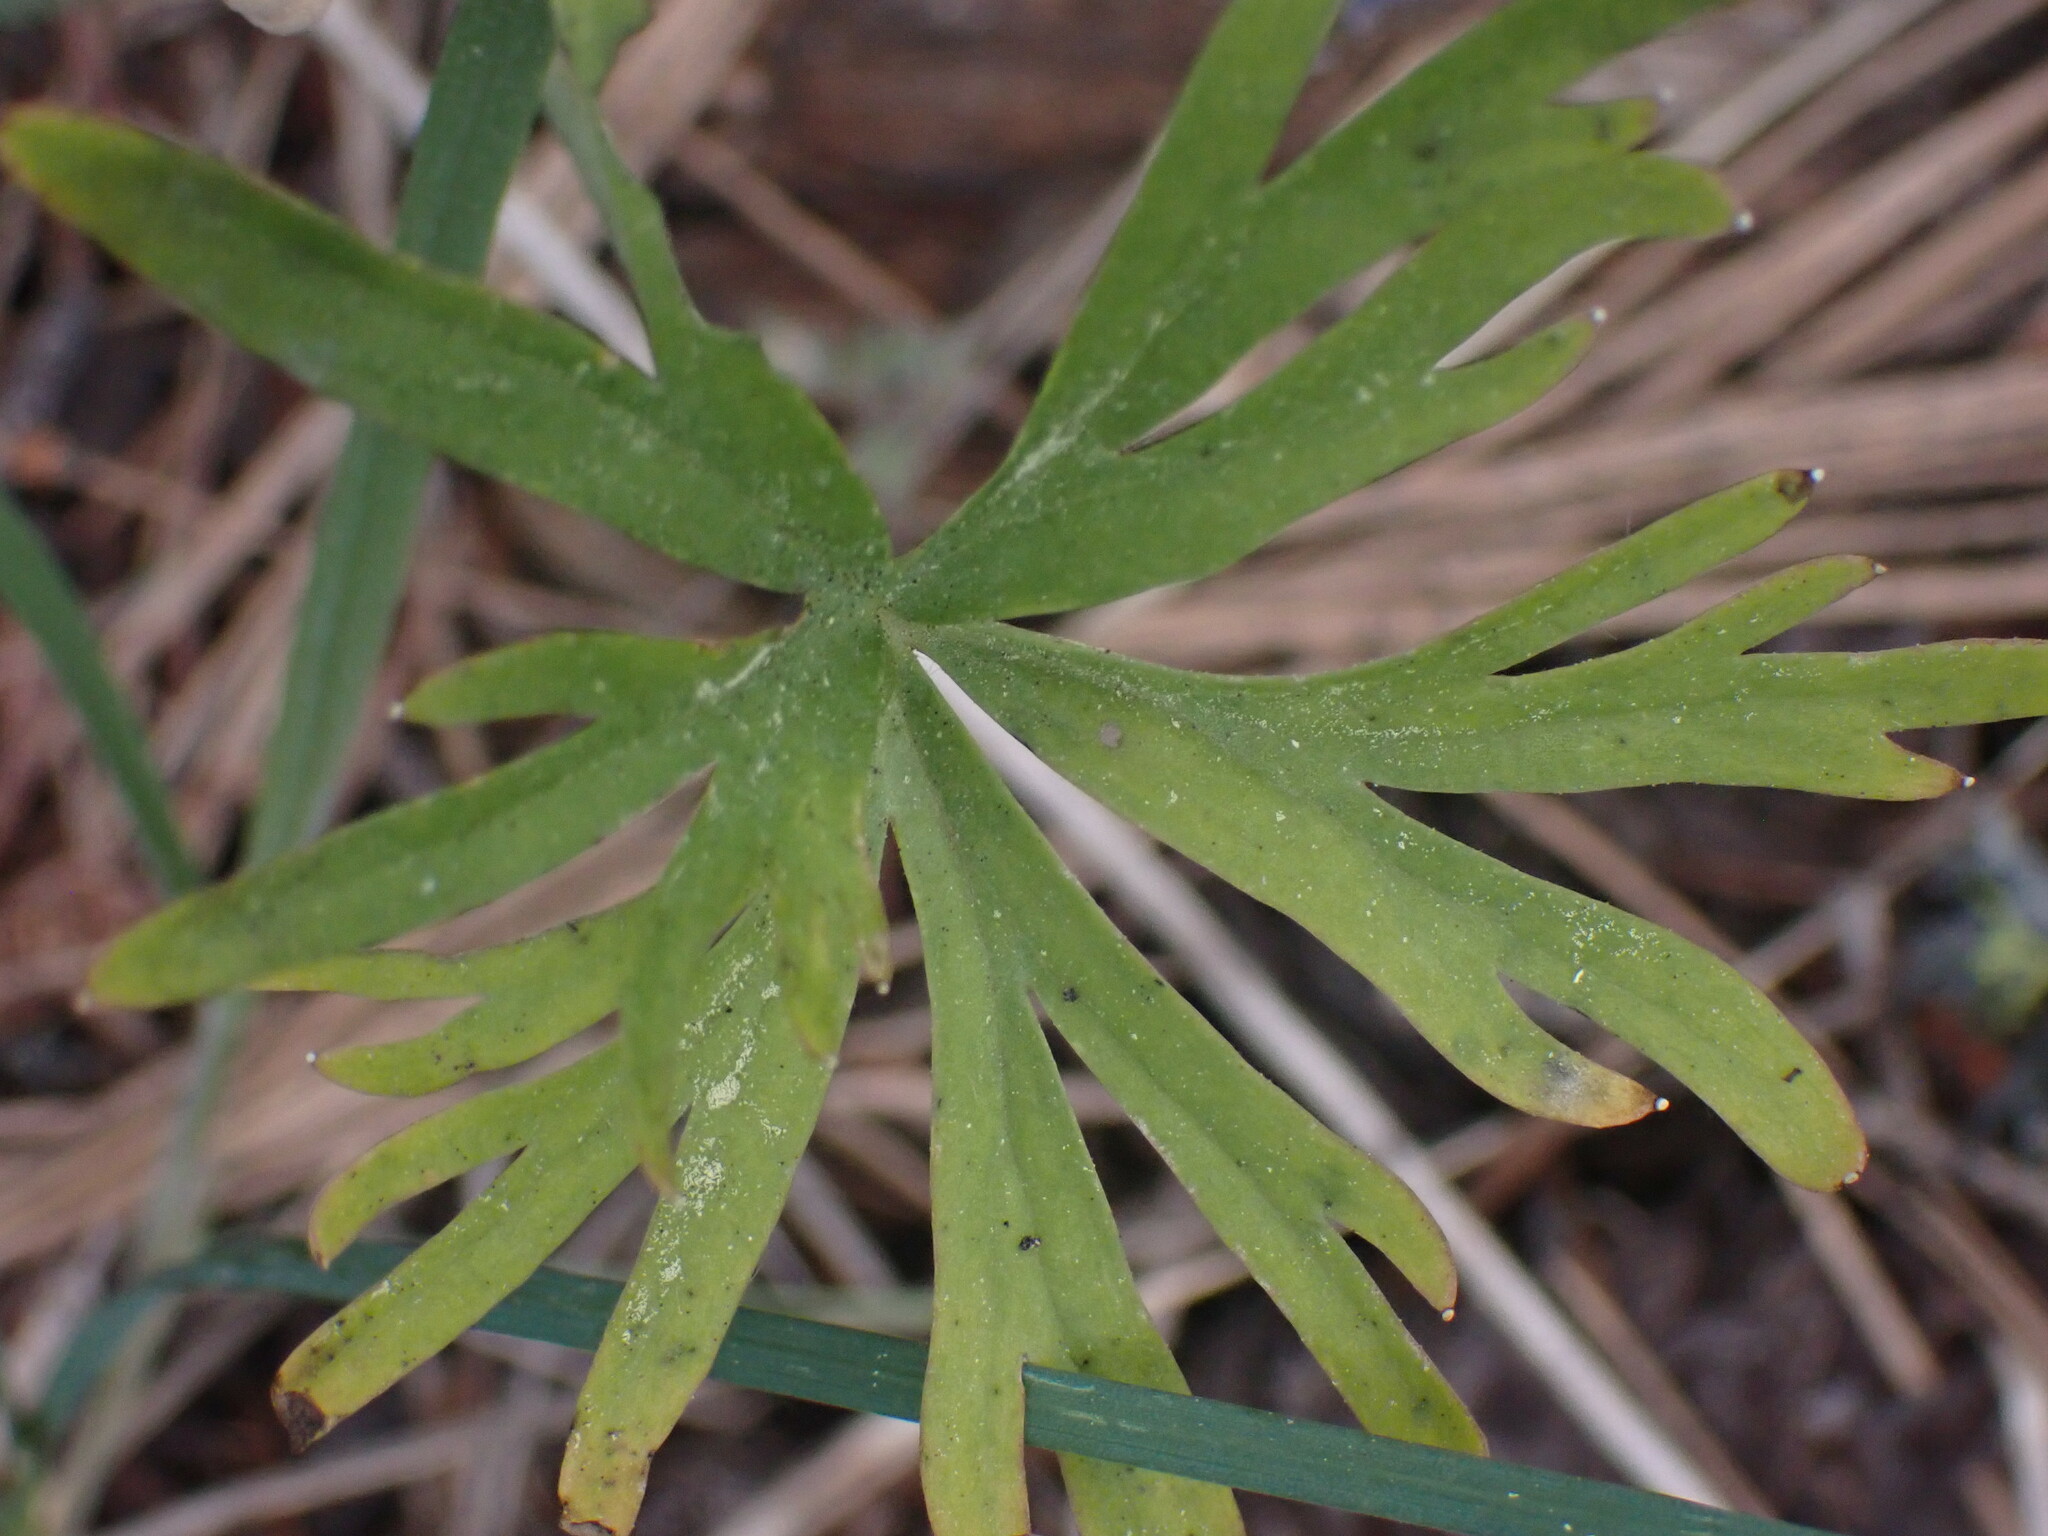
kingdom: Plantae
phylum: Tracheophyta
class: Magnoliopsida
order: Ranunculales
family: Ranunculaceae
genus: Delphinium
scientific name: Delphinium nuttallianum
